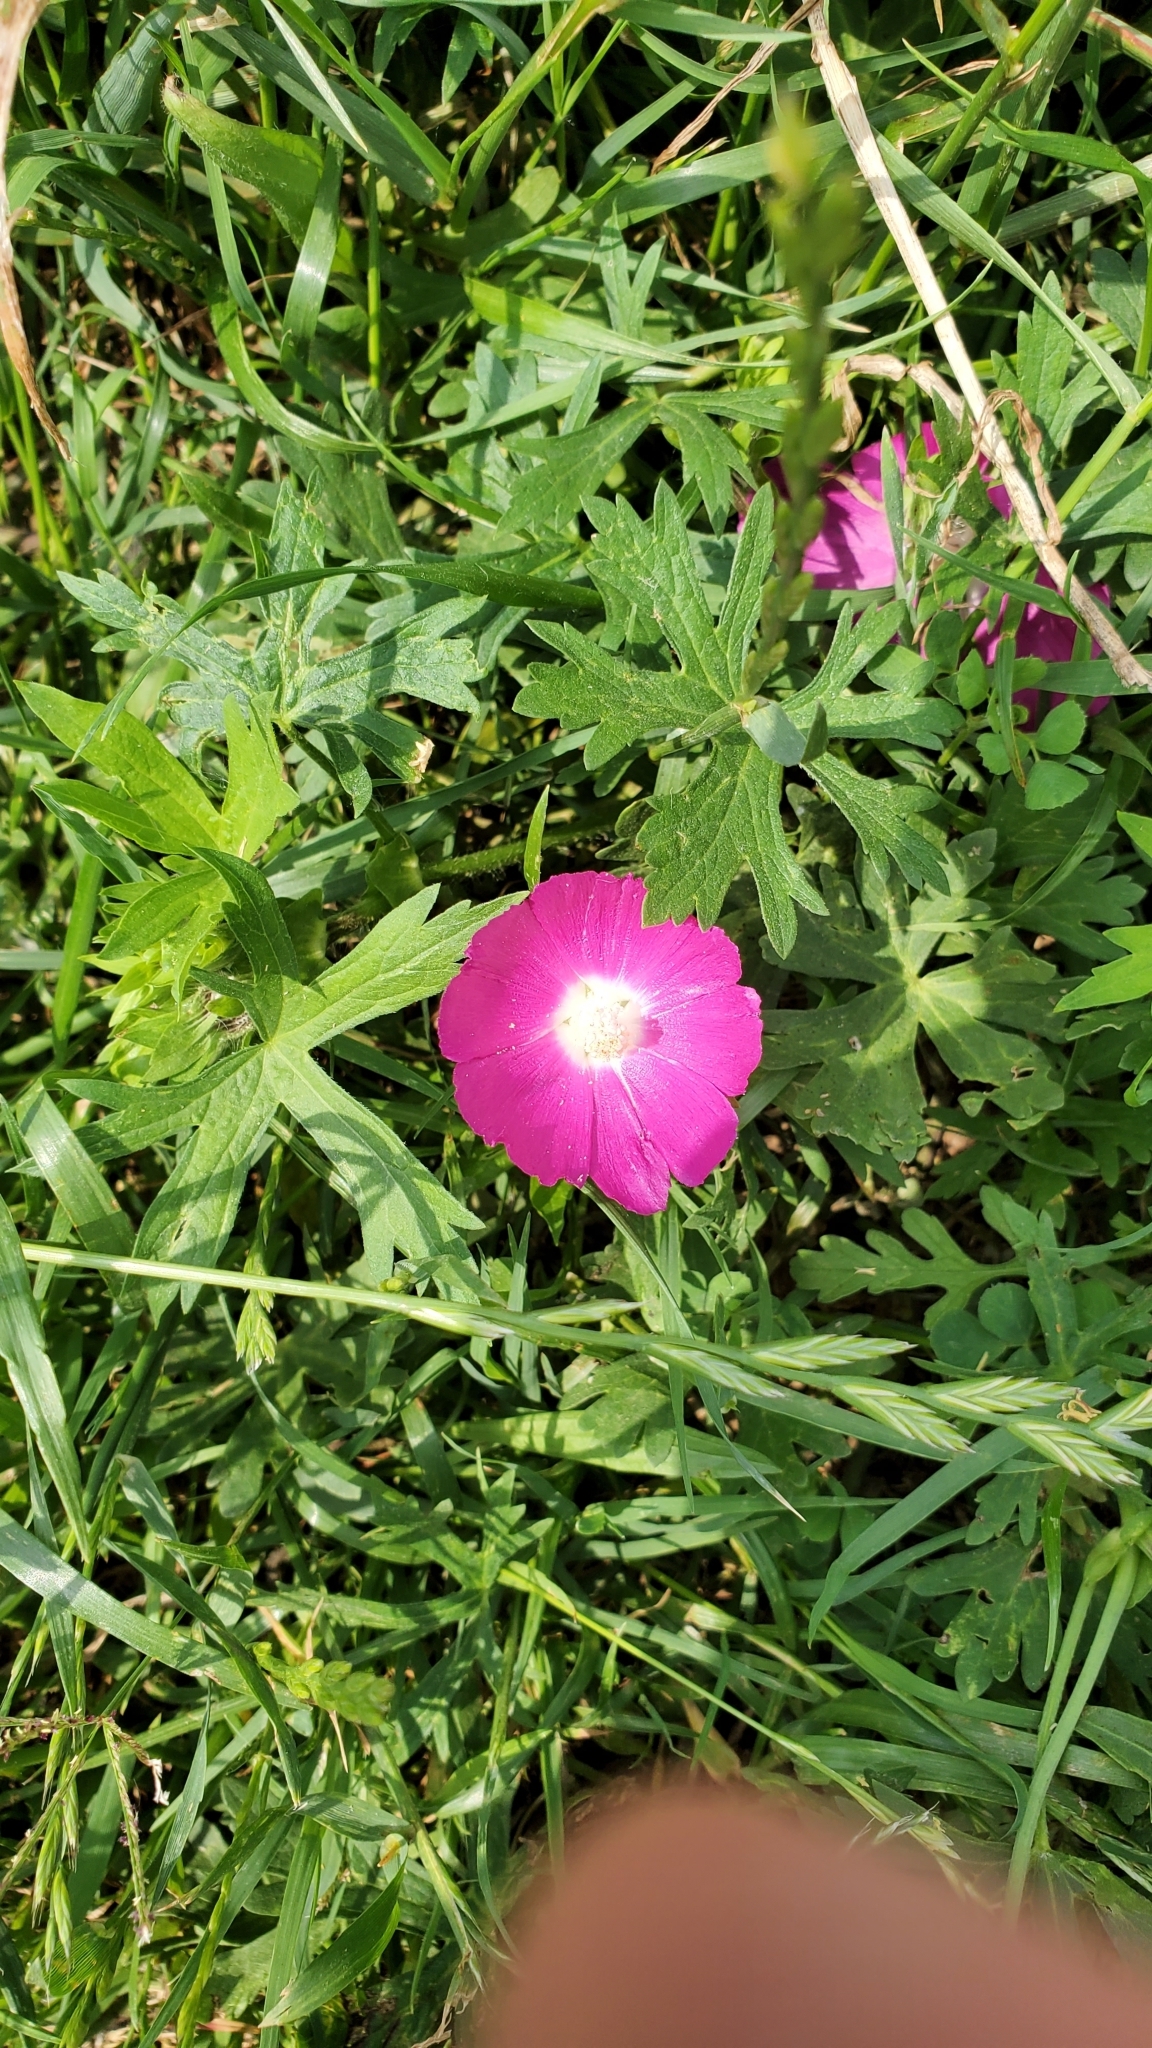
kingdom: Plantae
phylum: Tracheophyta
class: Magnoliopsida
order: Malvales
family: Malvaceae
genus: Callirhoe
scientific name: Callirhoe involucrata
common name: Purple poppy-mallow
